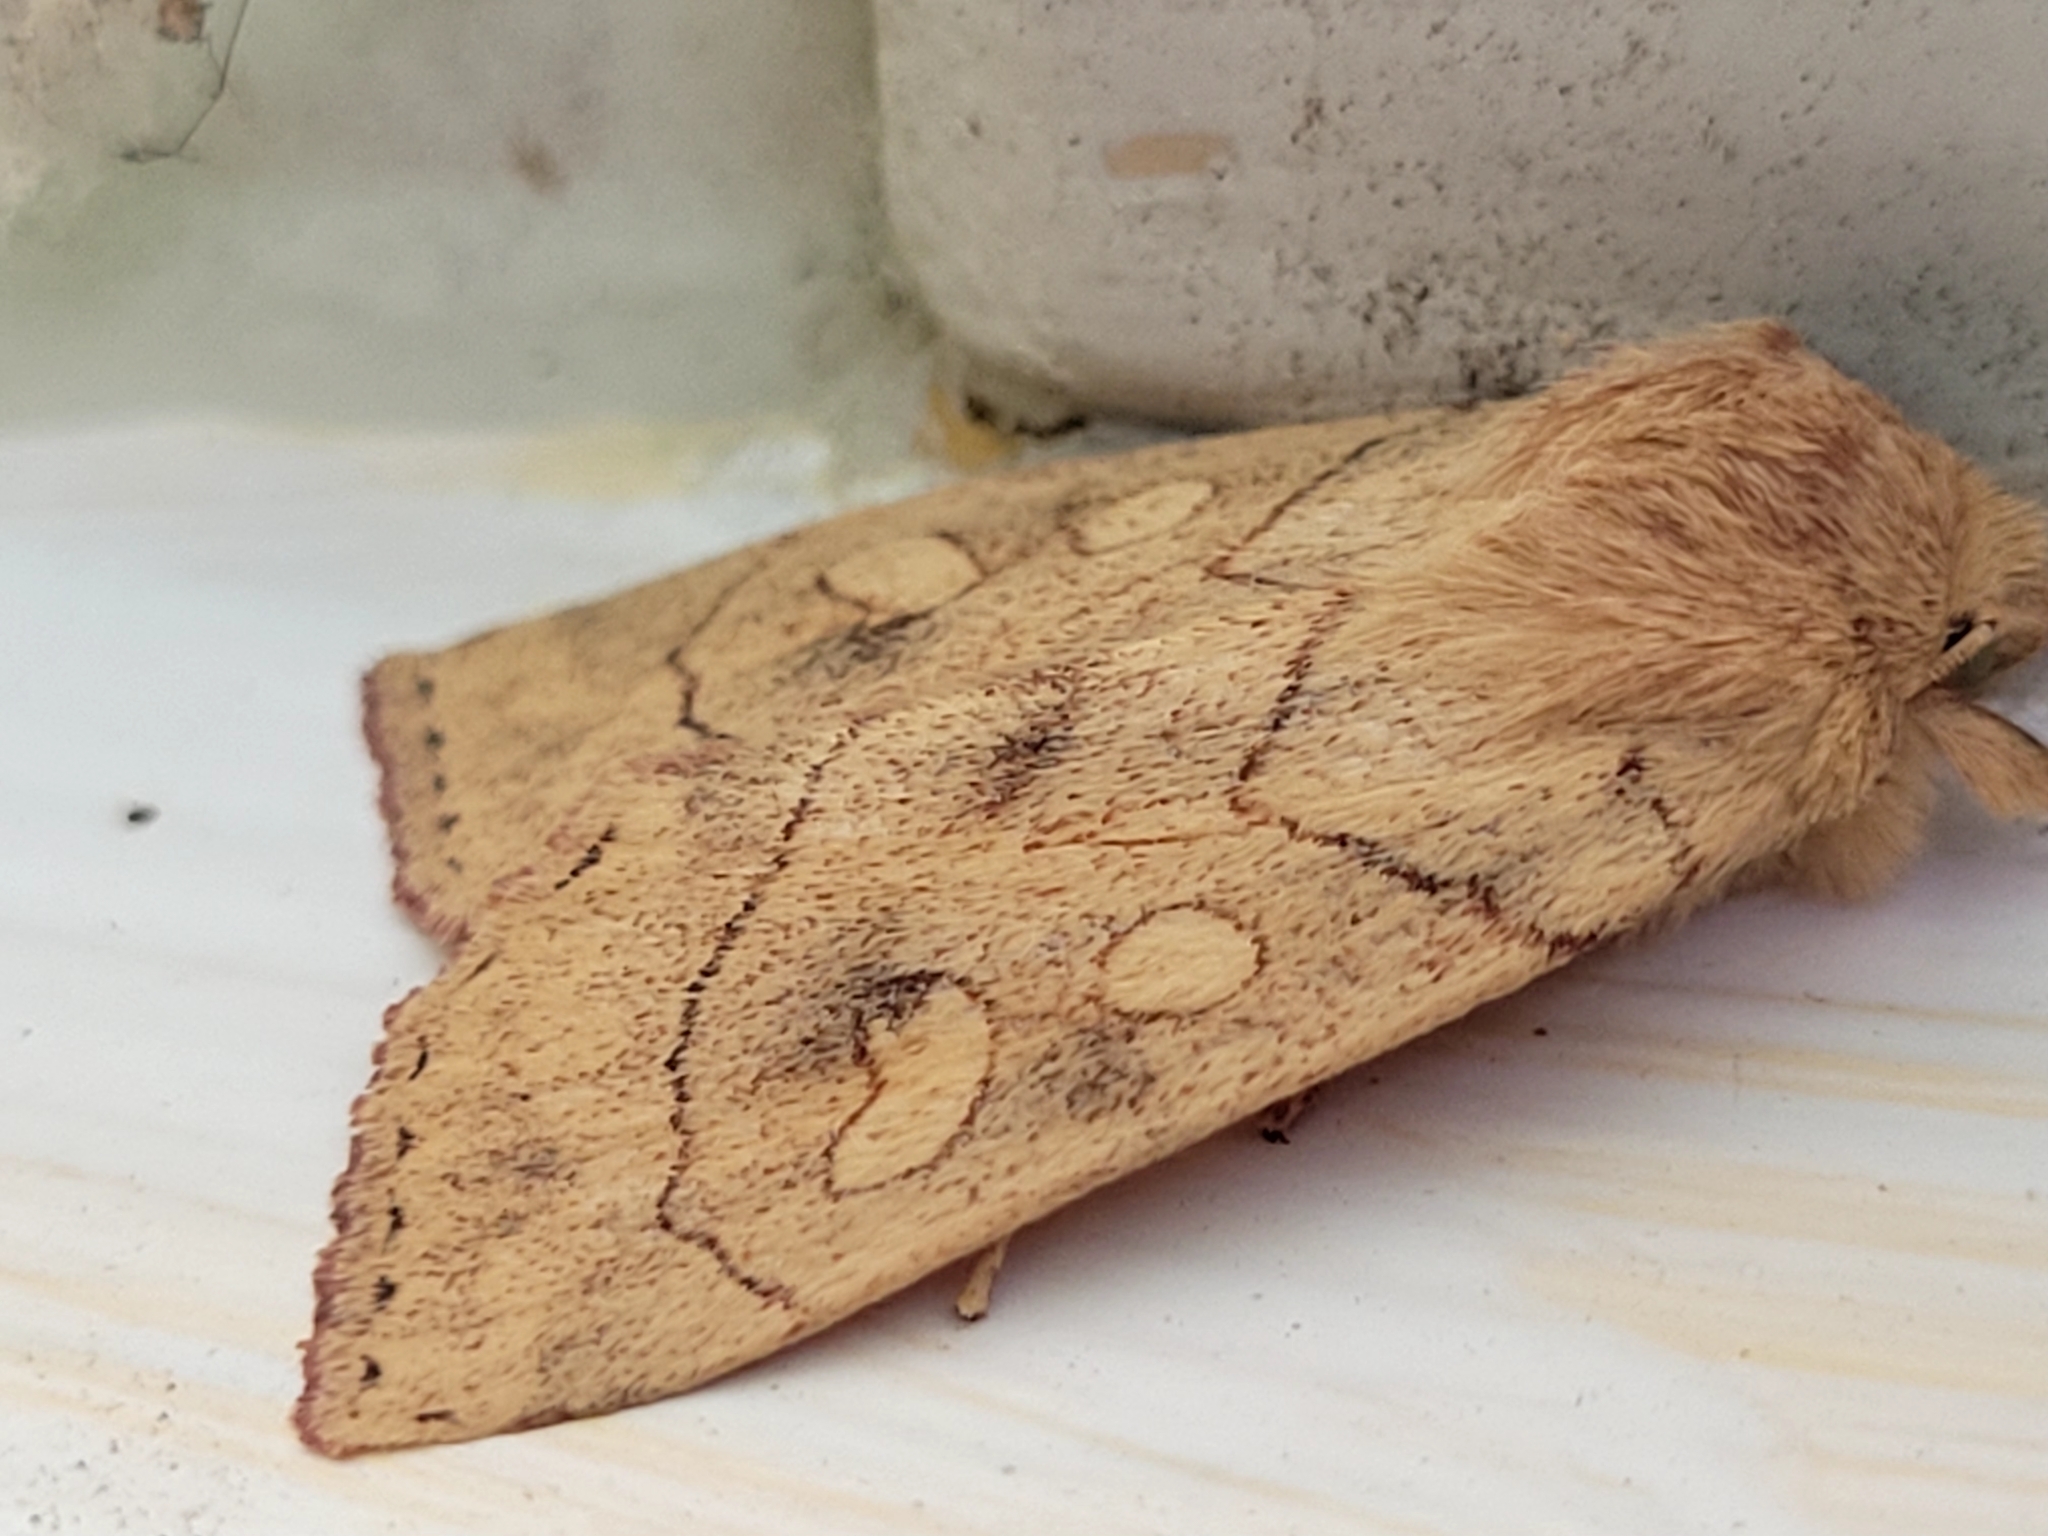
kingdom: Animalia
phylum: Arthropoda
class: Insecta
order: Lepidoptera
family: Noctuidae
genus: Enargia
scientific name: Enargia decolor
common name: Aspen twoleaf tier moth
